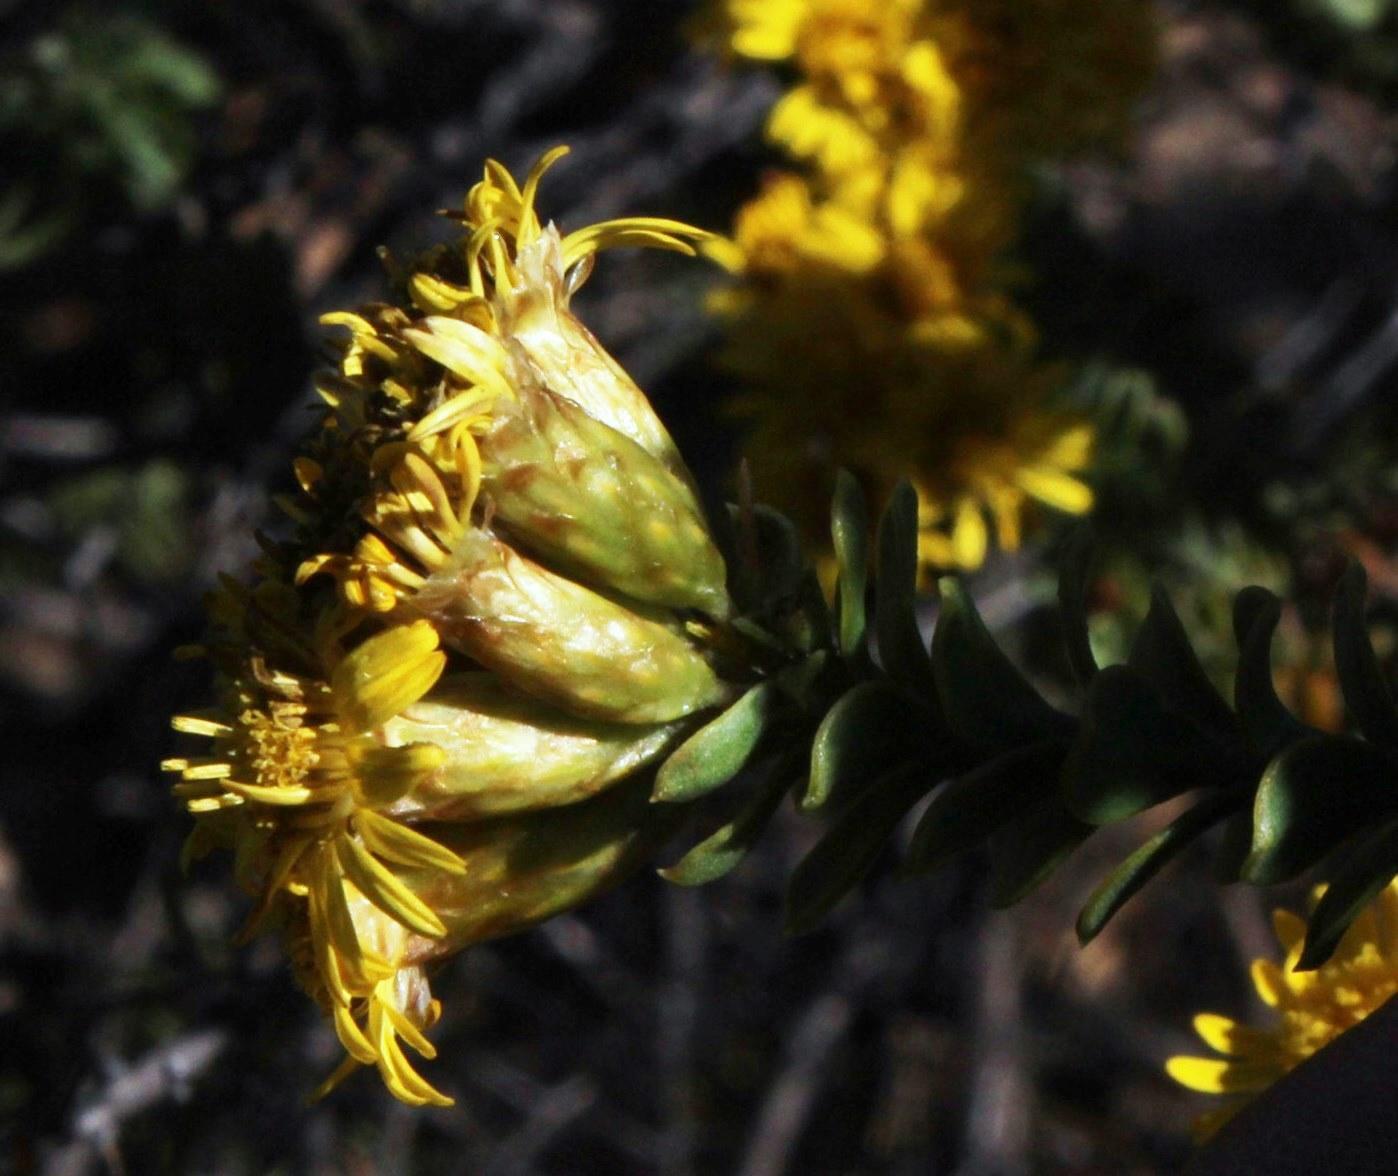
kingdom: Plantae
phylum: Tracheophyta
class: Magnoliopsida
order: Asterales
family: Asteraceae
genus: Oedera
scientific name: Oedera squarrosa
